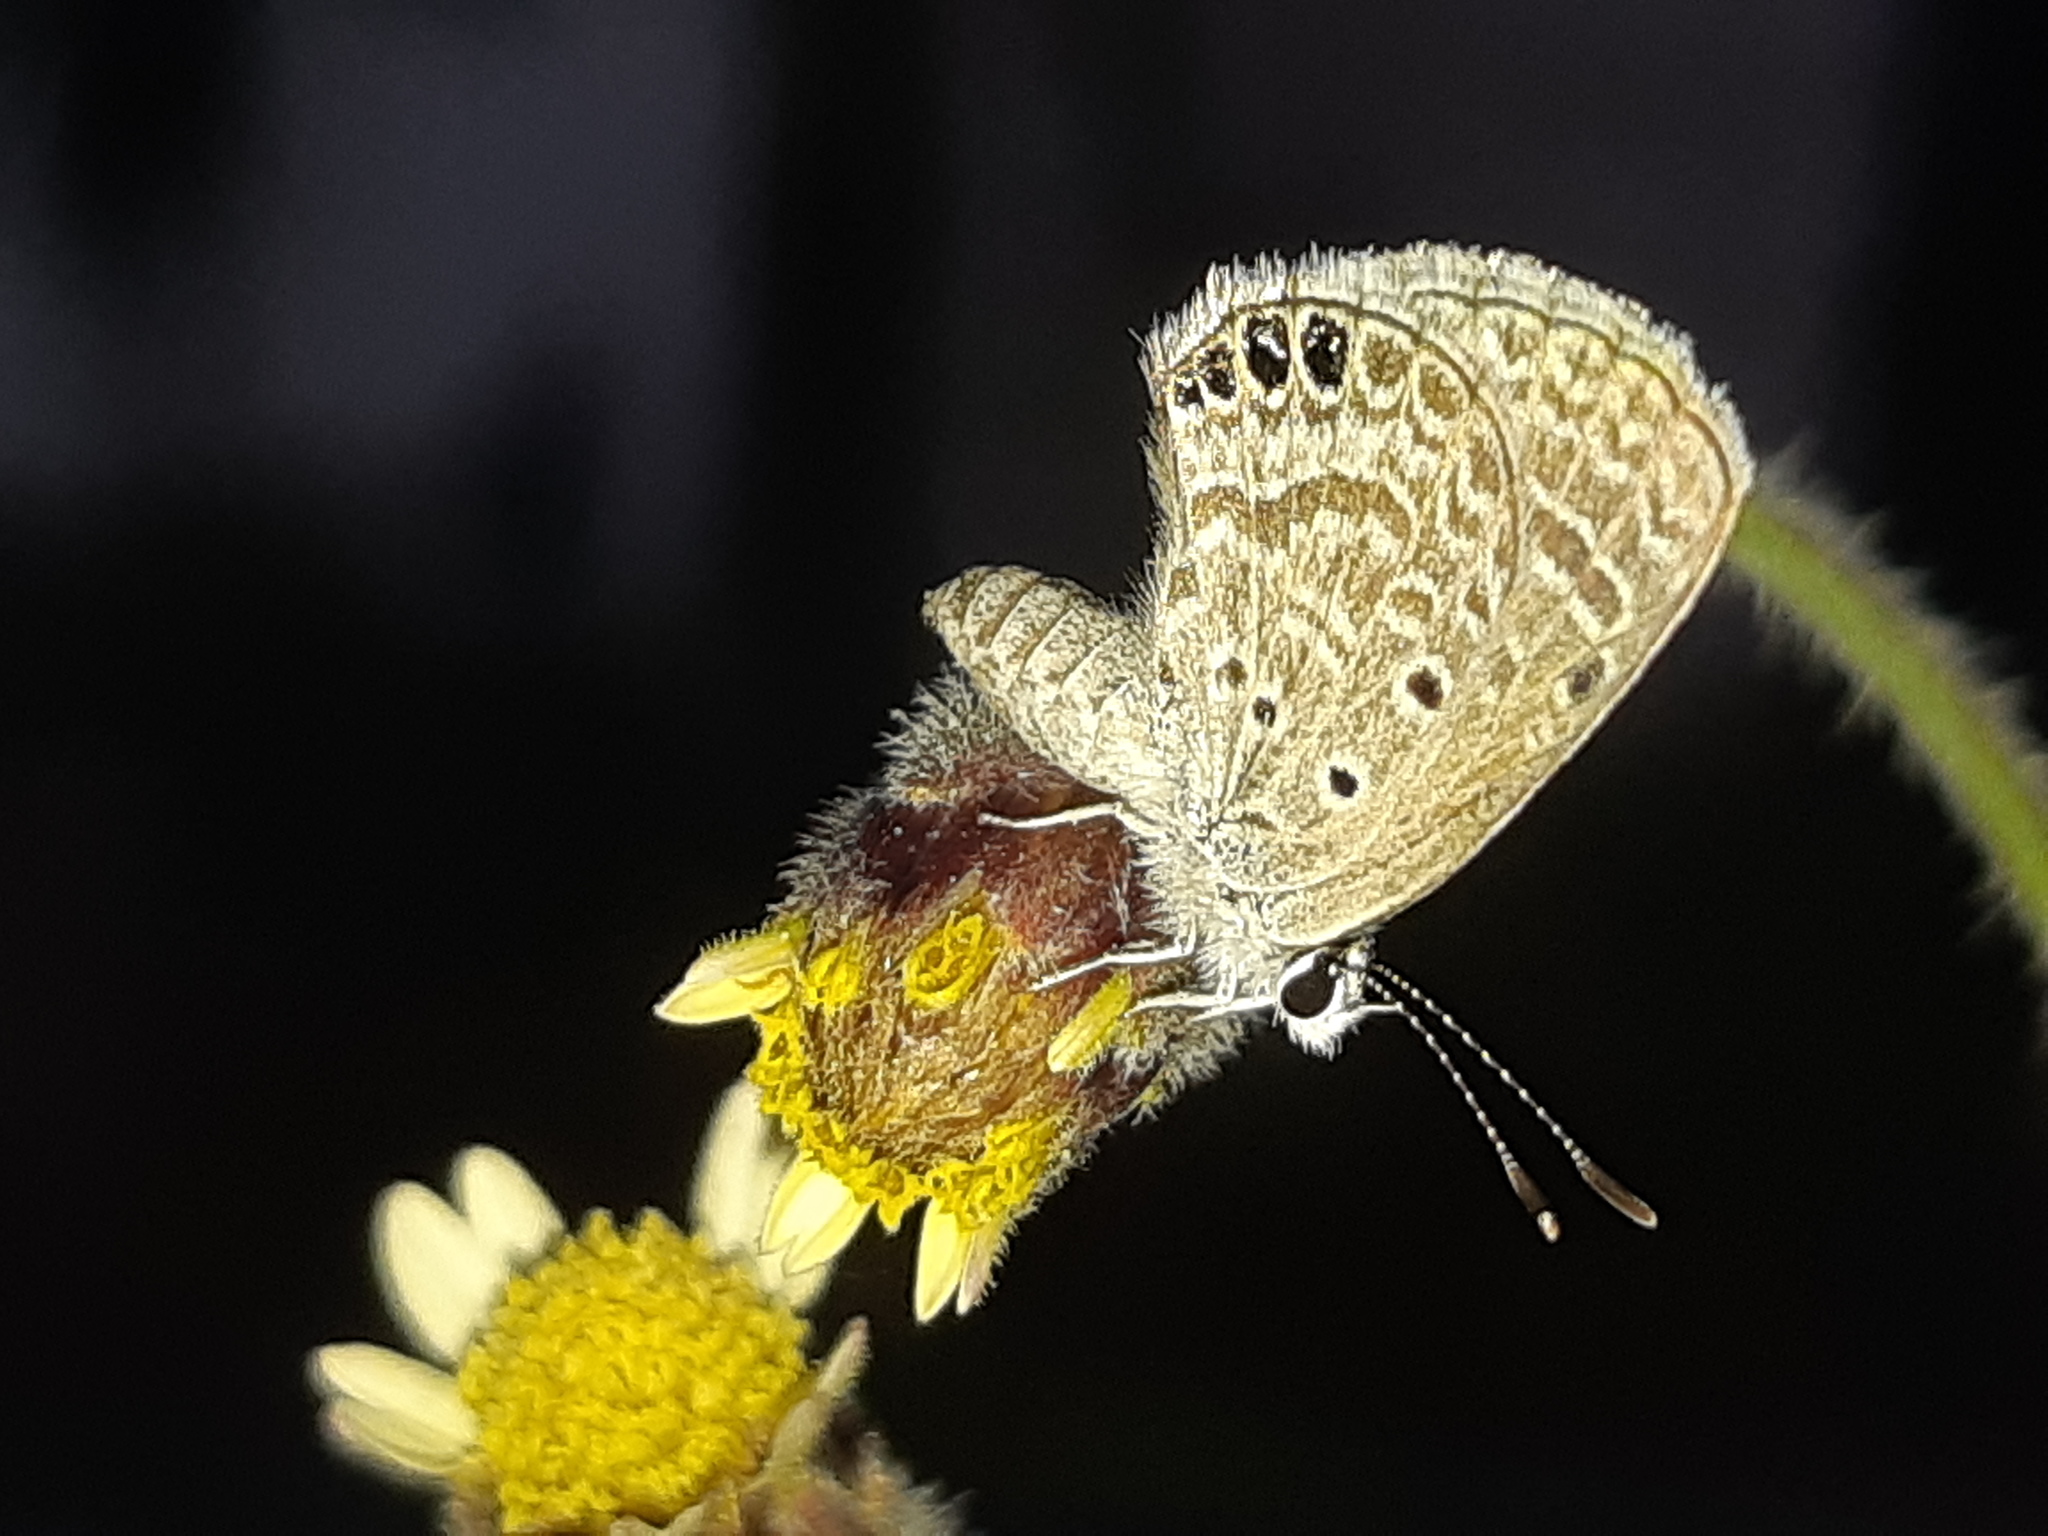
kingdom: Animalia
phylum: Arthropoda
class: Insecta
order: Lepidoptera
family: Lycaenidae
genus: Hemiargus
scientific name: Hemiargus ramon
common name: Ramon blue
